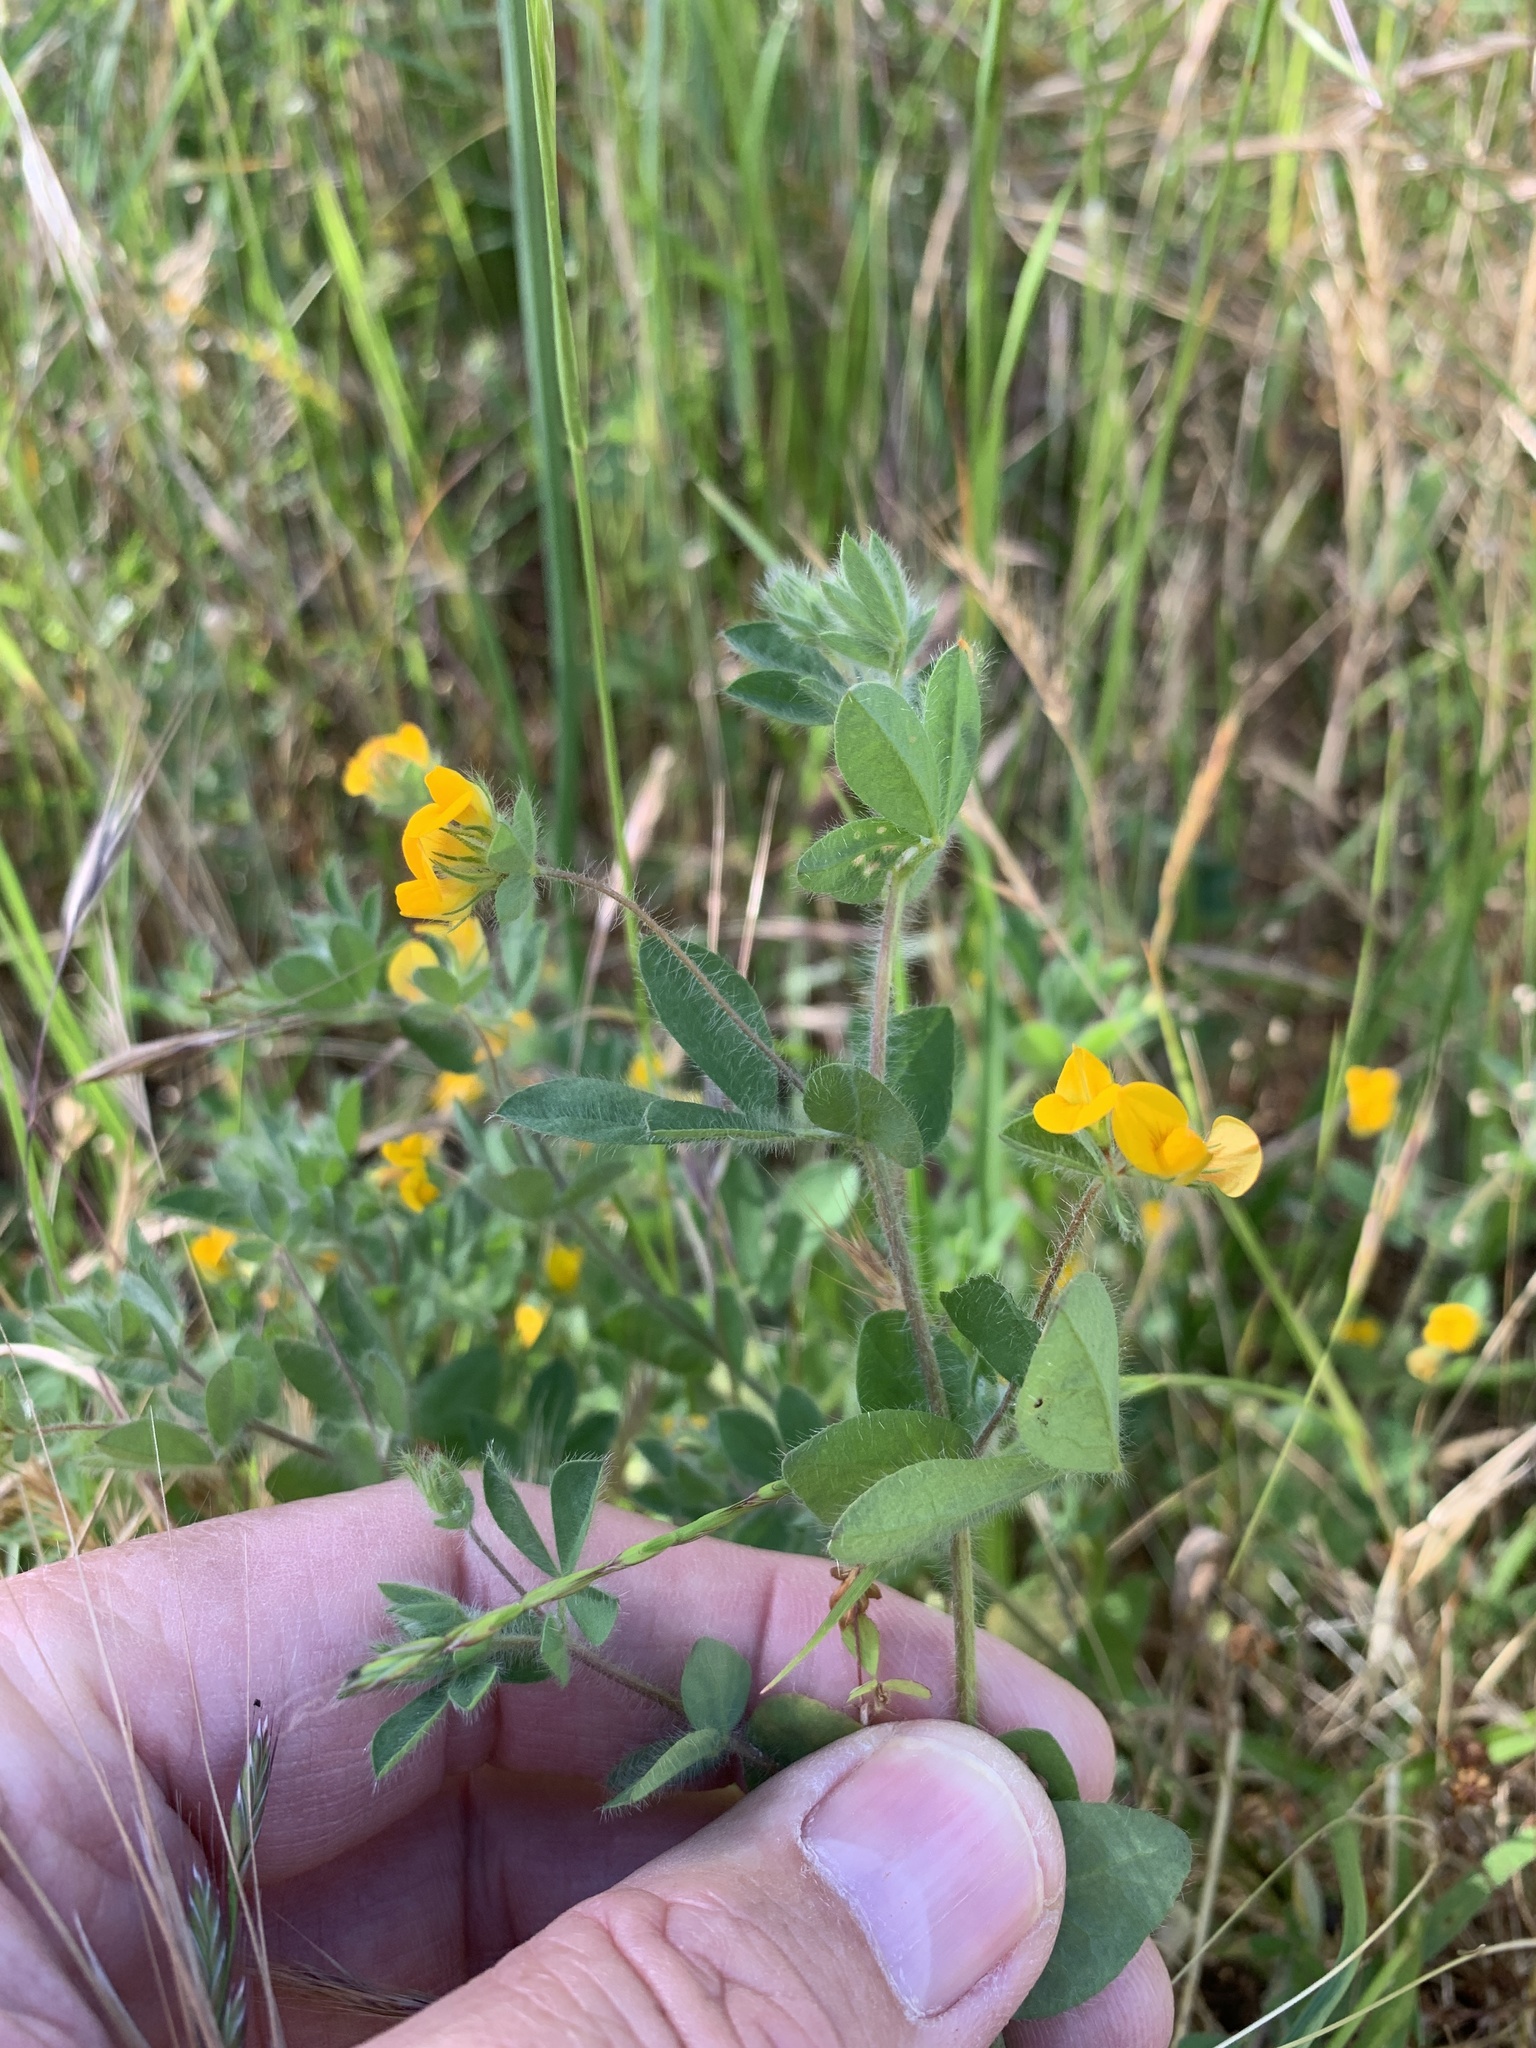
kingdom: Plantae
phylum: Tracheophyta
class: Magnoliopsida
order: Fabales
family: Fabaceae
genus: Lotus
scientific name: Lotus subbiflorus
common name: Hairy bird's-foot trefoil
